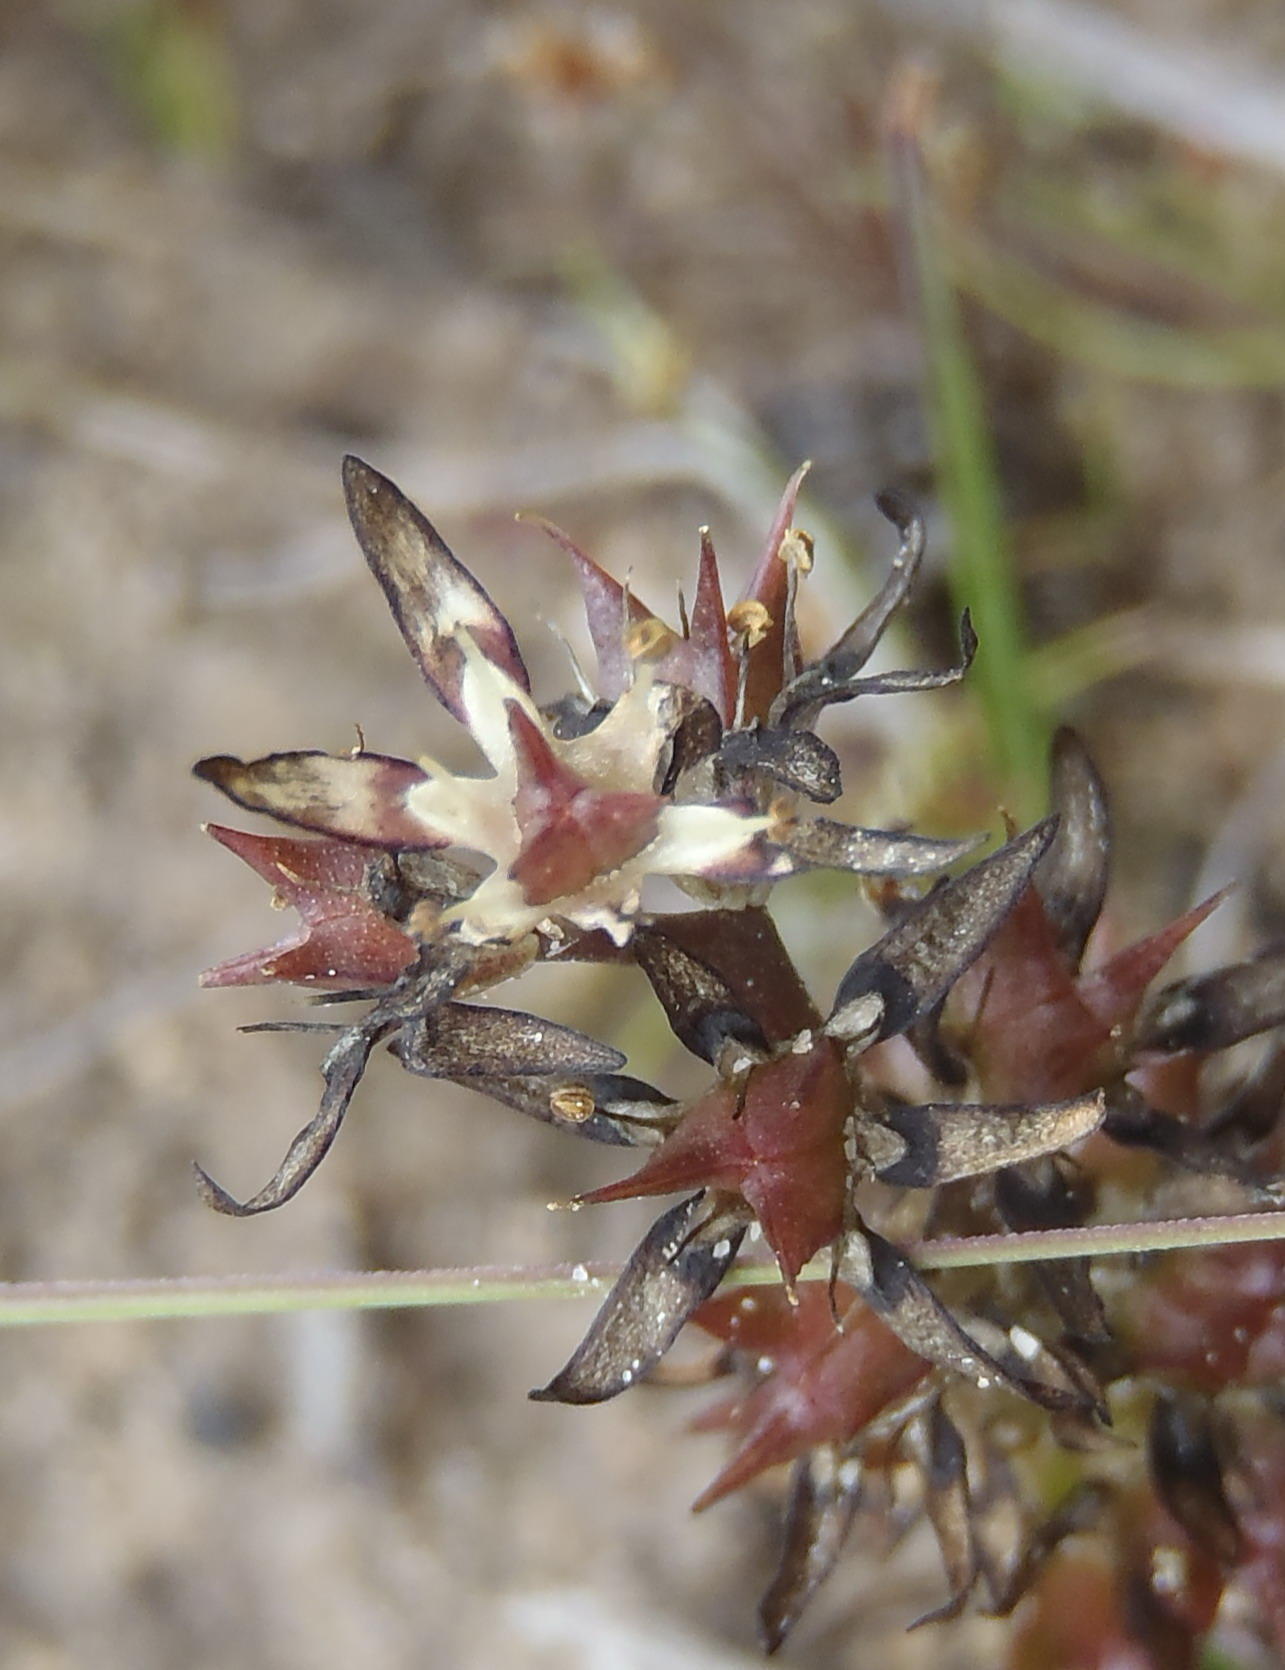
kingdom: Plantae
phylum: Tracheophyta
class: Liliopsida
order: Liliales
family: Colchicaceae
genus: Wurmbea
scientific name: Wurmbea spicata
